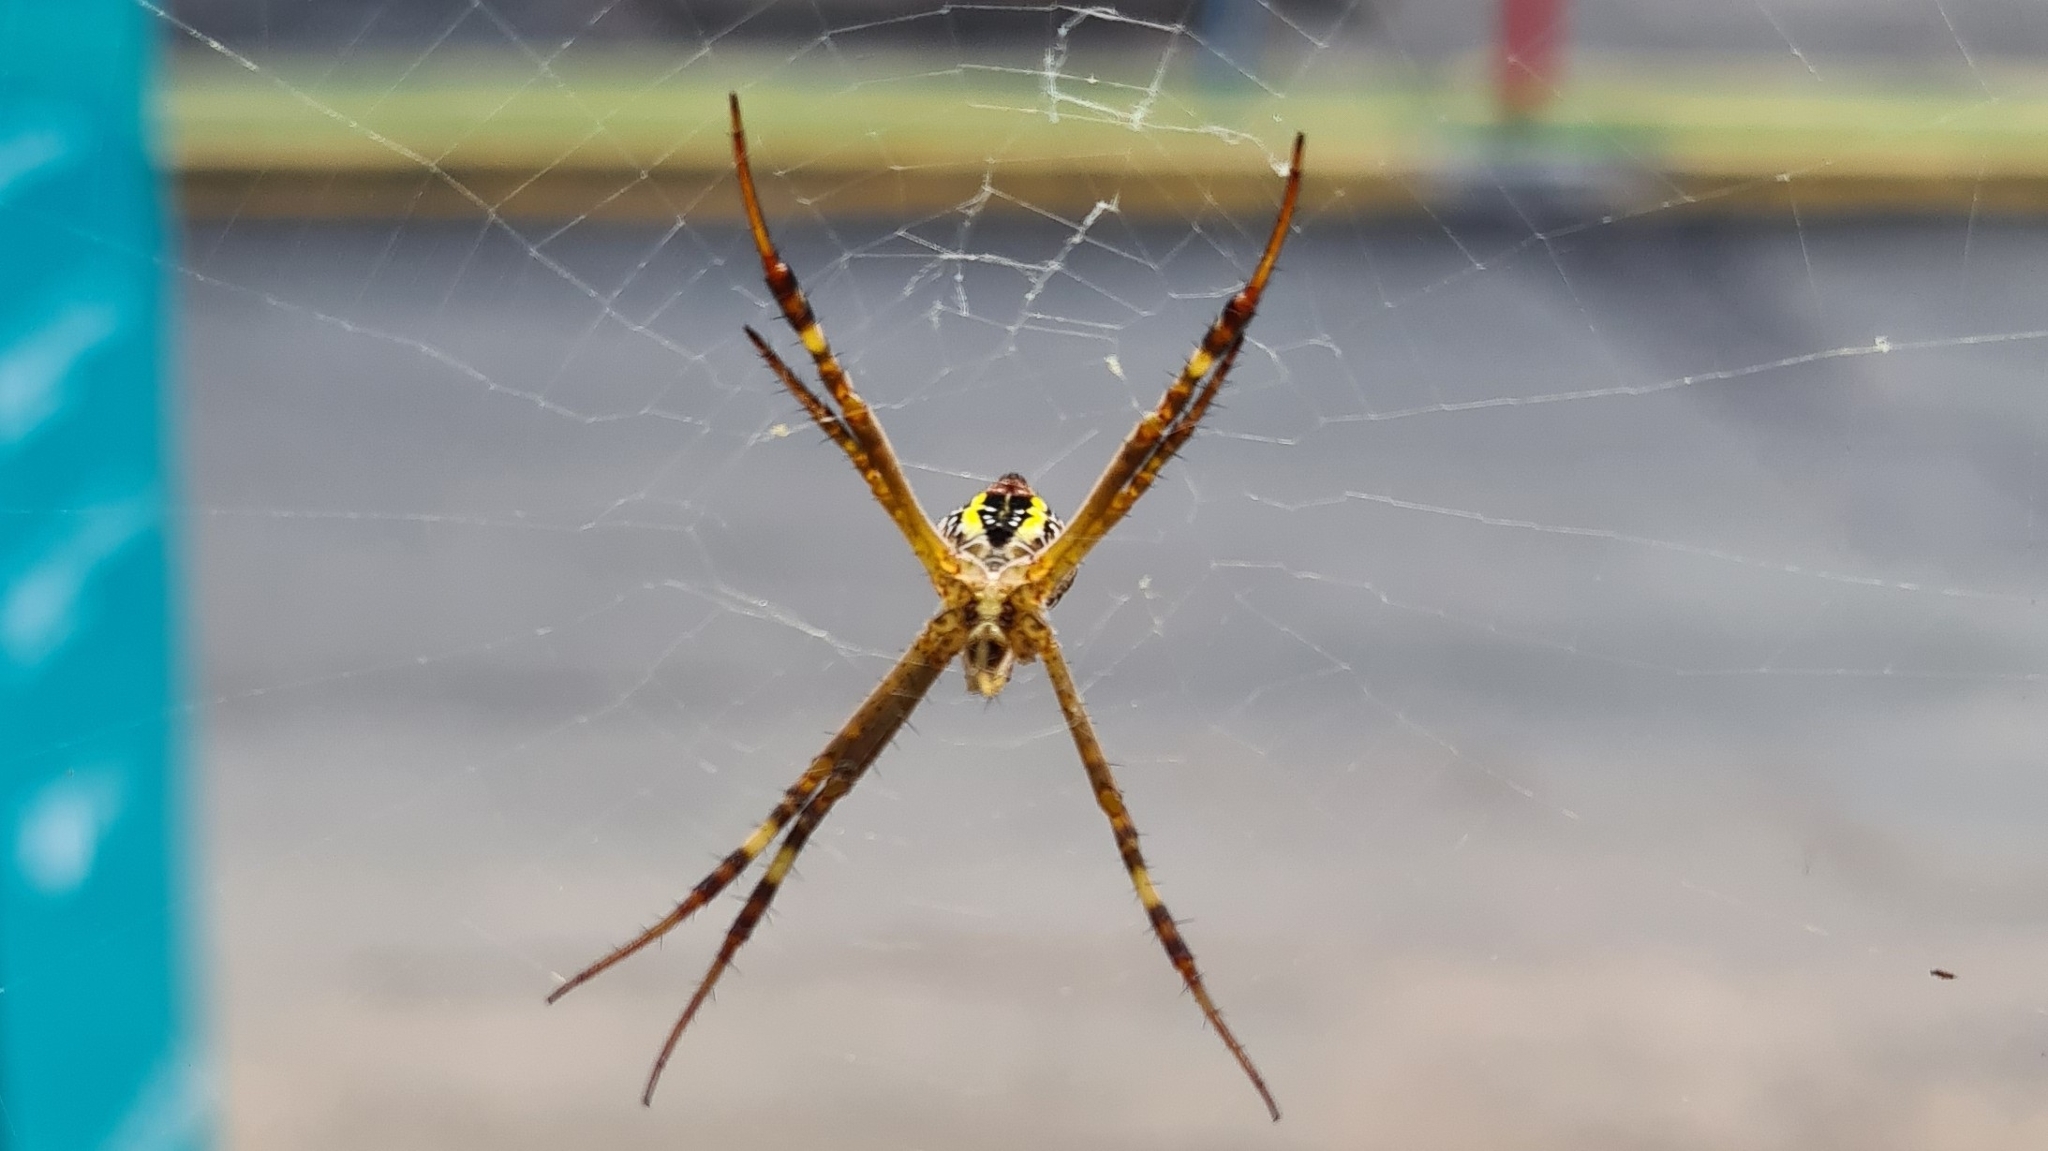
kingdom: Animalia
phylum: Arthropoda
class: Arachnida
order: Araneae
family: Araneidae
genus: Argiope
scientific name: Argiope keyserlingi
